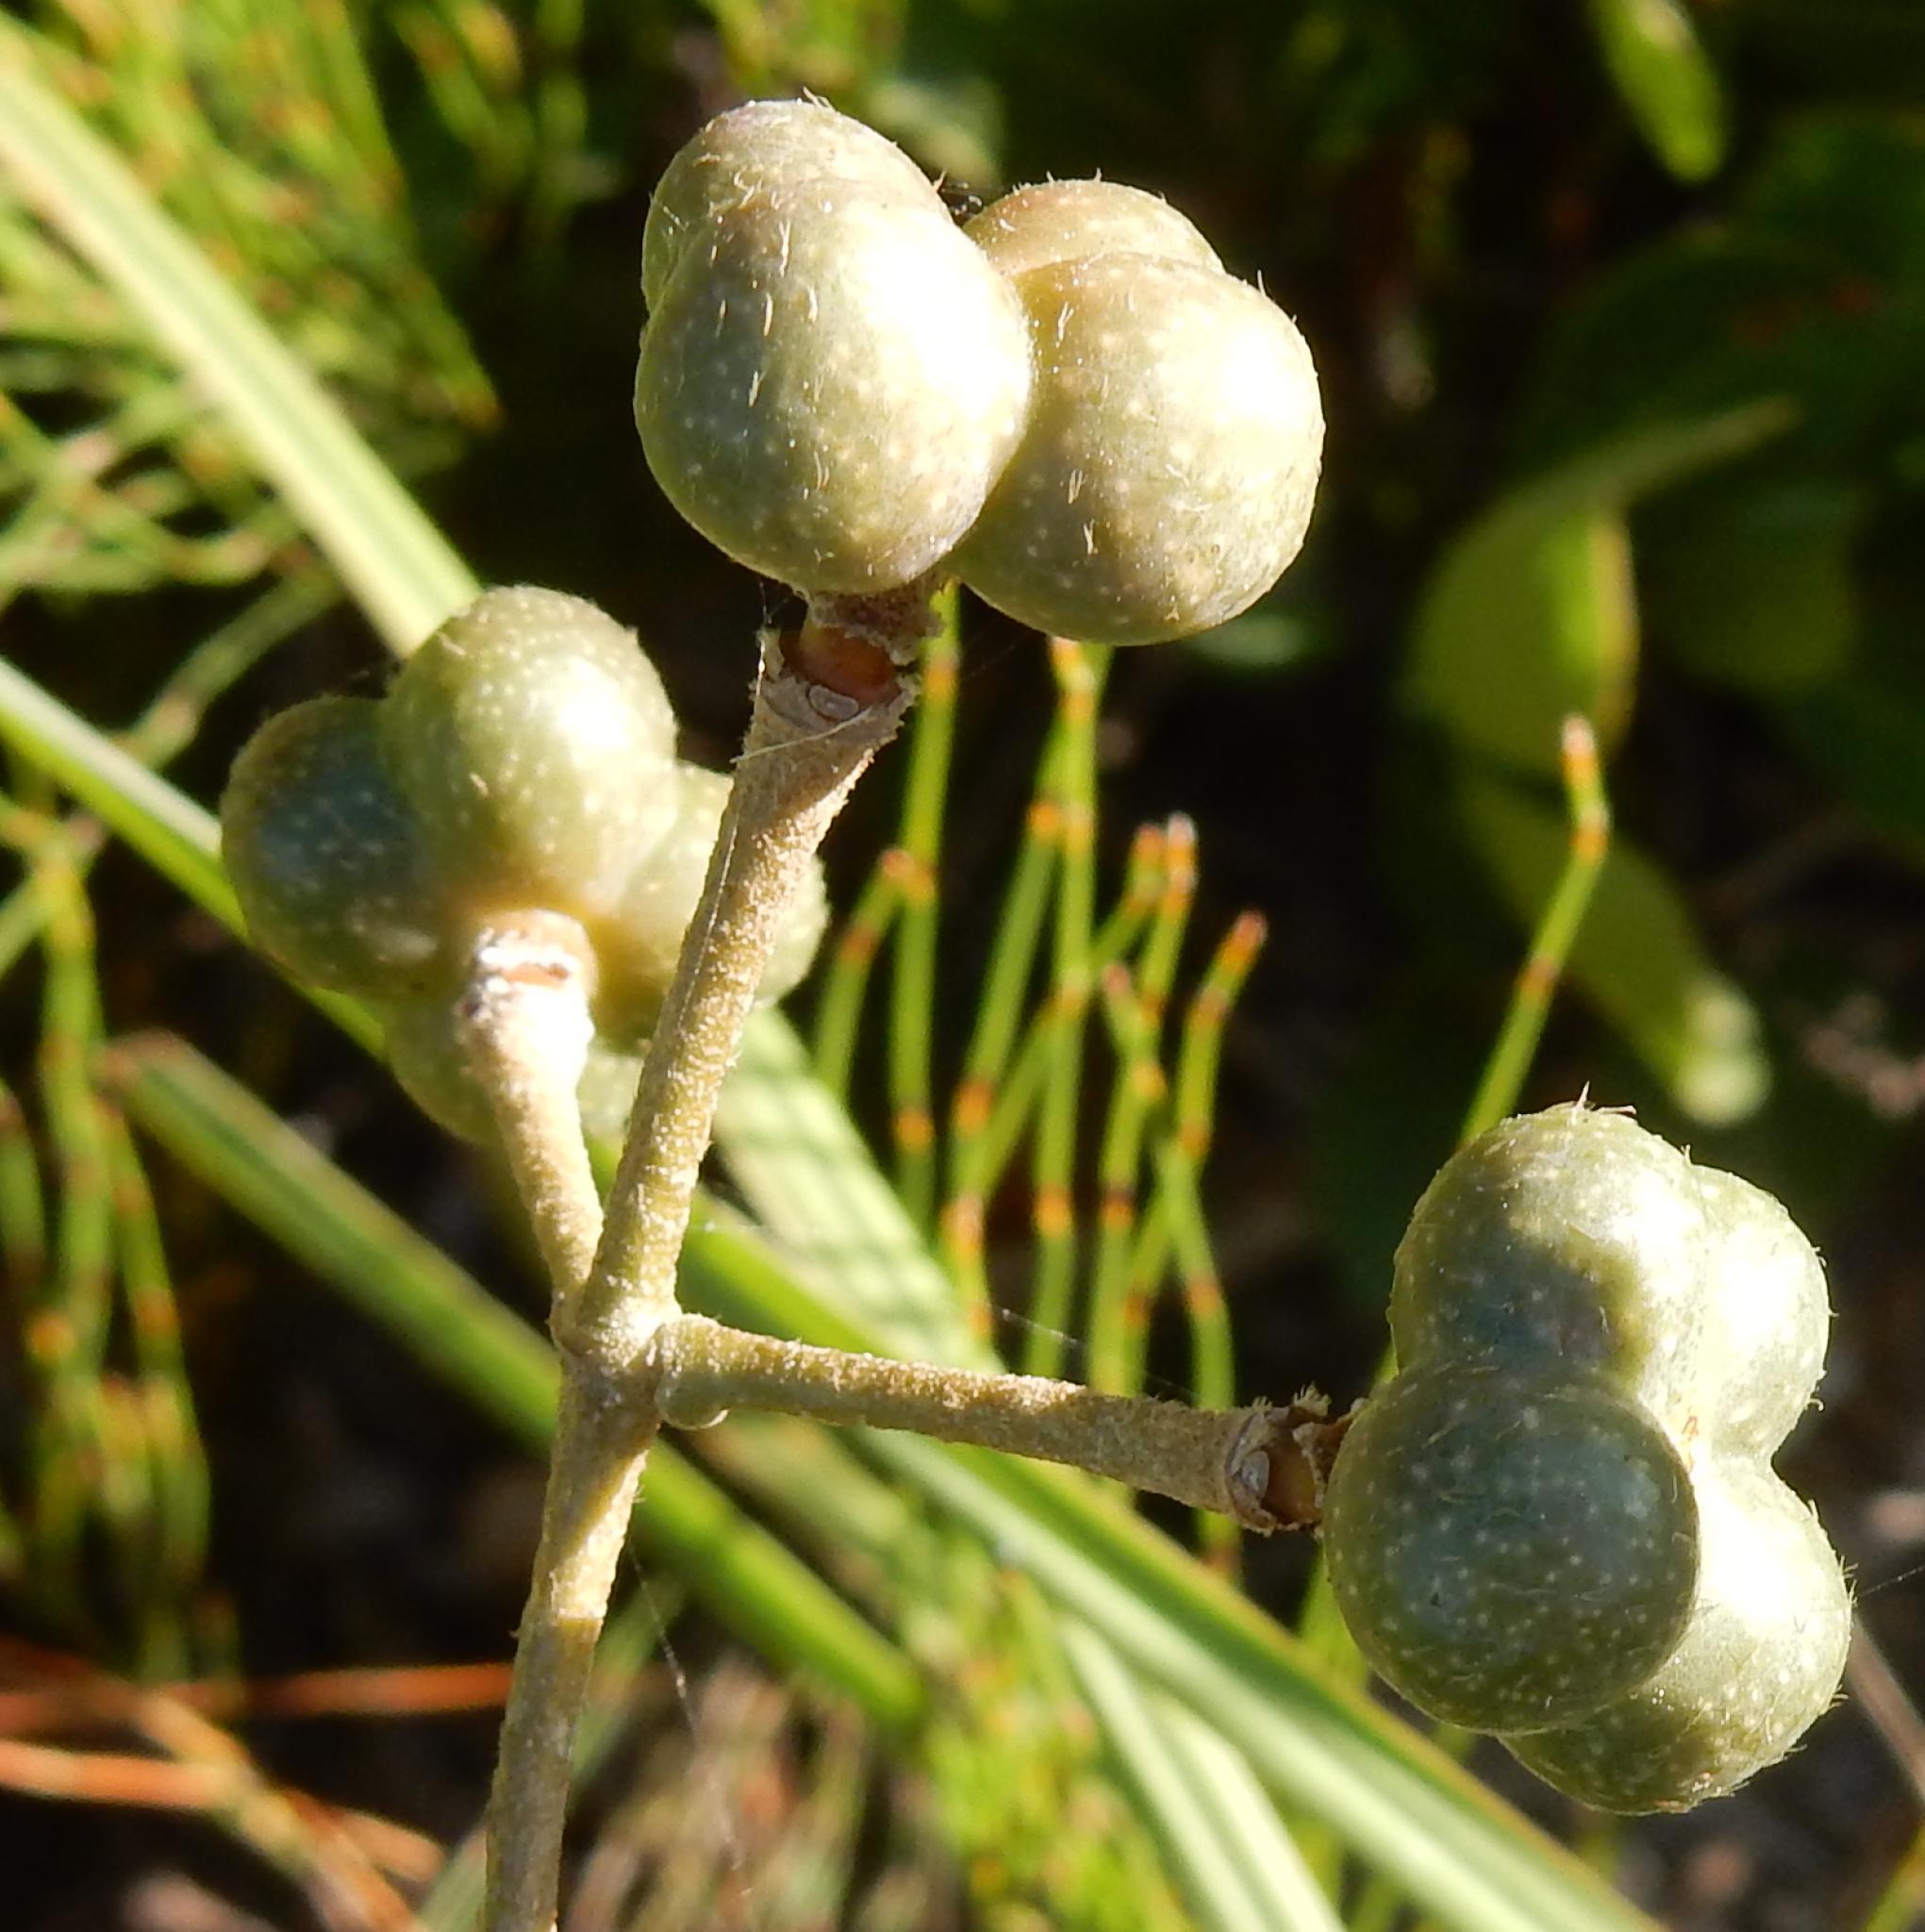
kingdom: Plantae
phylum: Tracheophyta
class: Magnoliopsida
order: Malvales
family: Malvaceae
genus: Grewia
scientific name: Grewia occidentalis
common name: Crossberry
